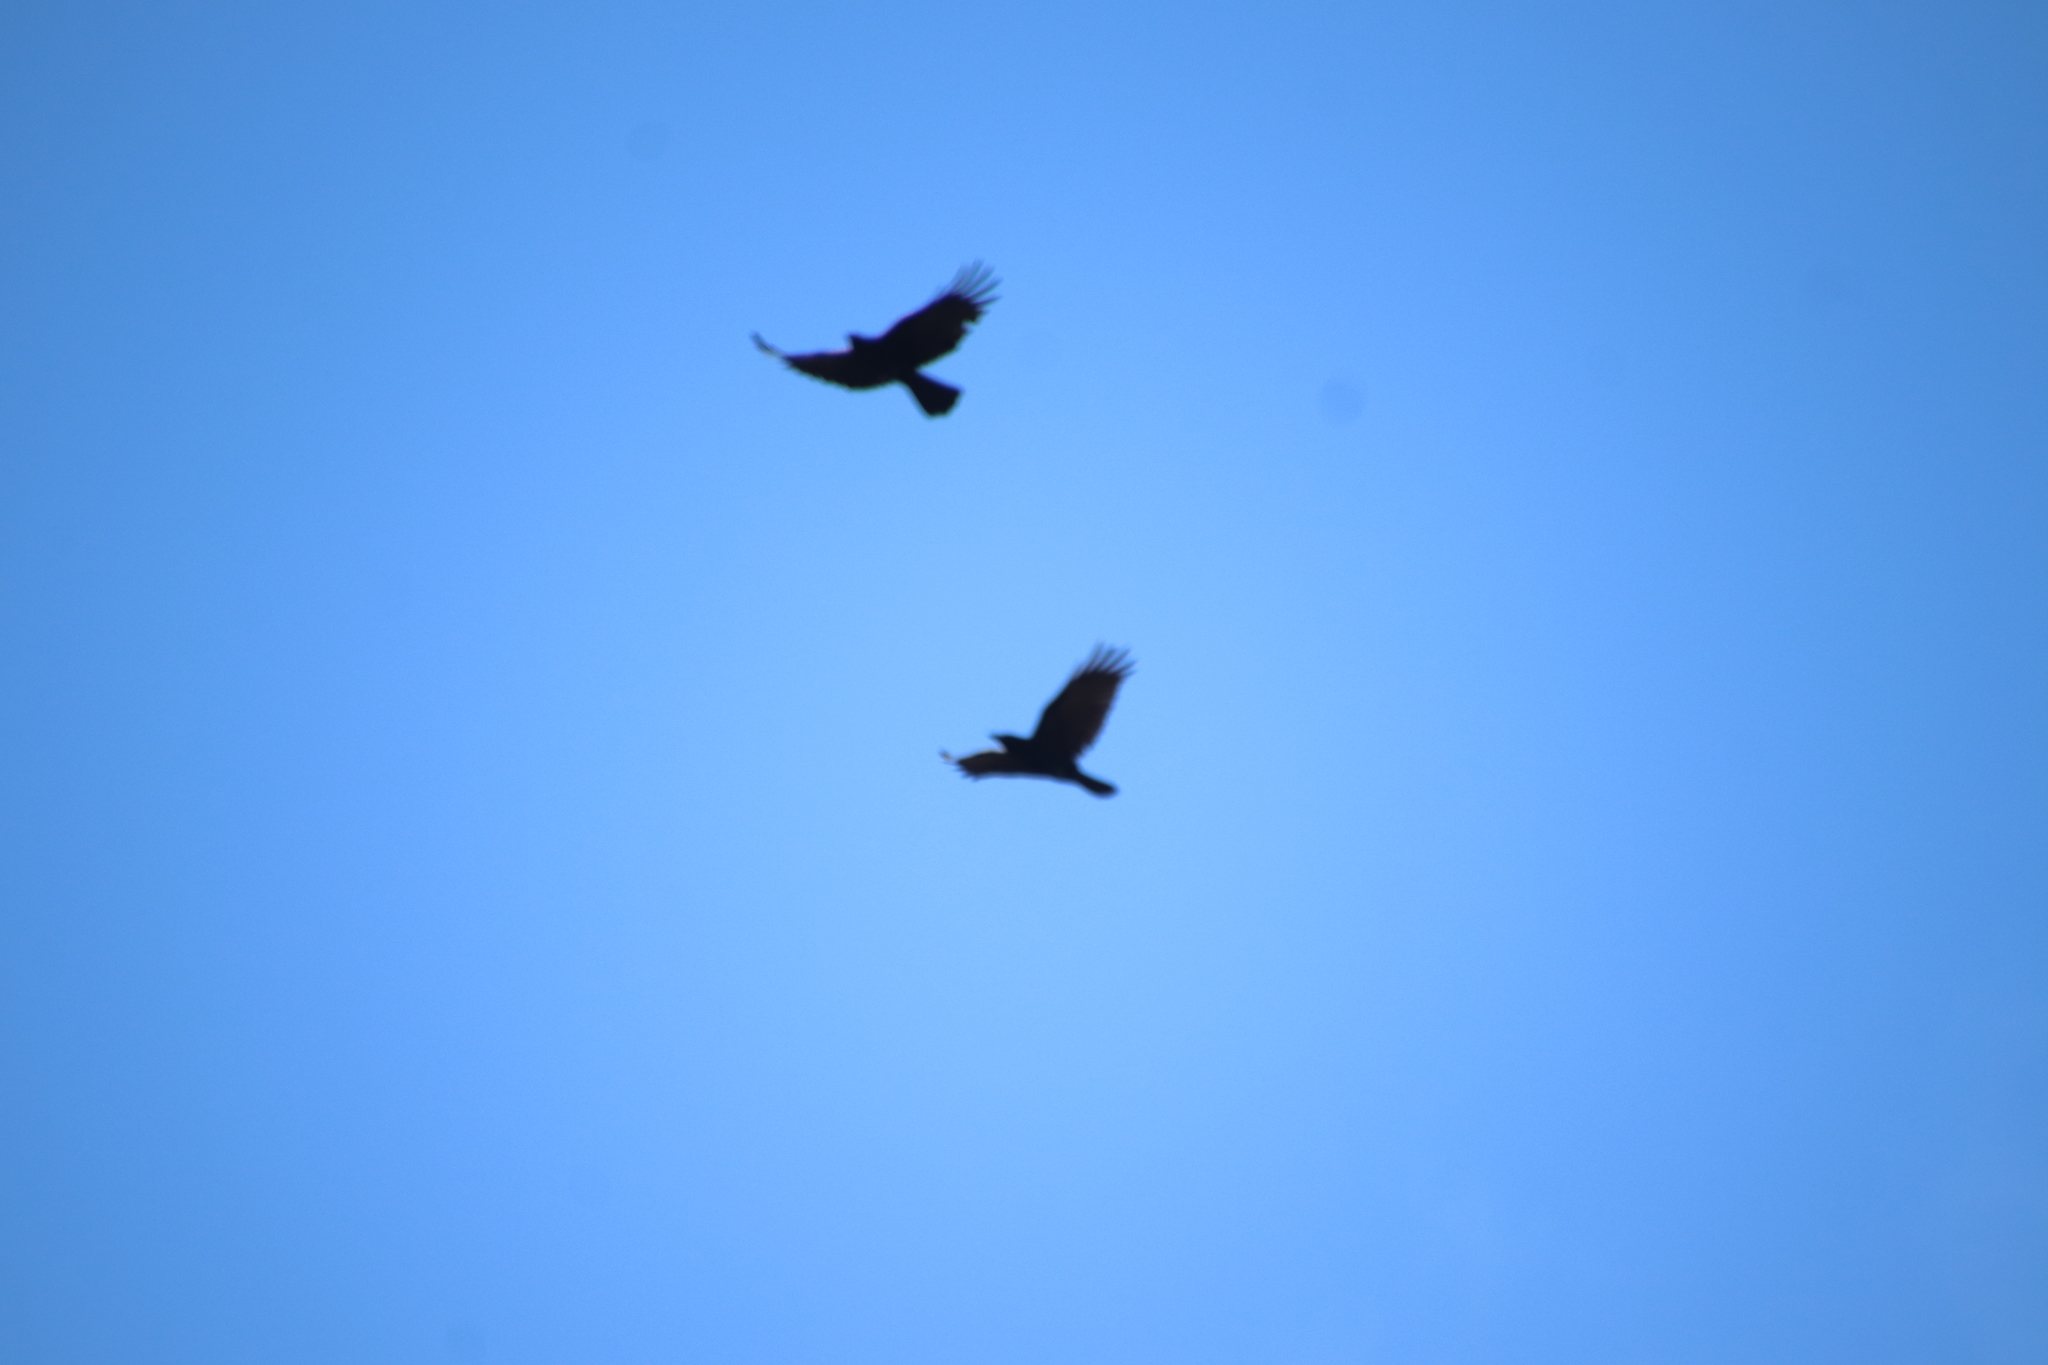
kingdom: Animalia
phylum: Chordata
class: Aves
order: Passeriformes
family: Corvidae
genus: Corvus
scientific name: Corvus brachyrhynchos
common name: American crow
